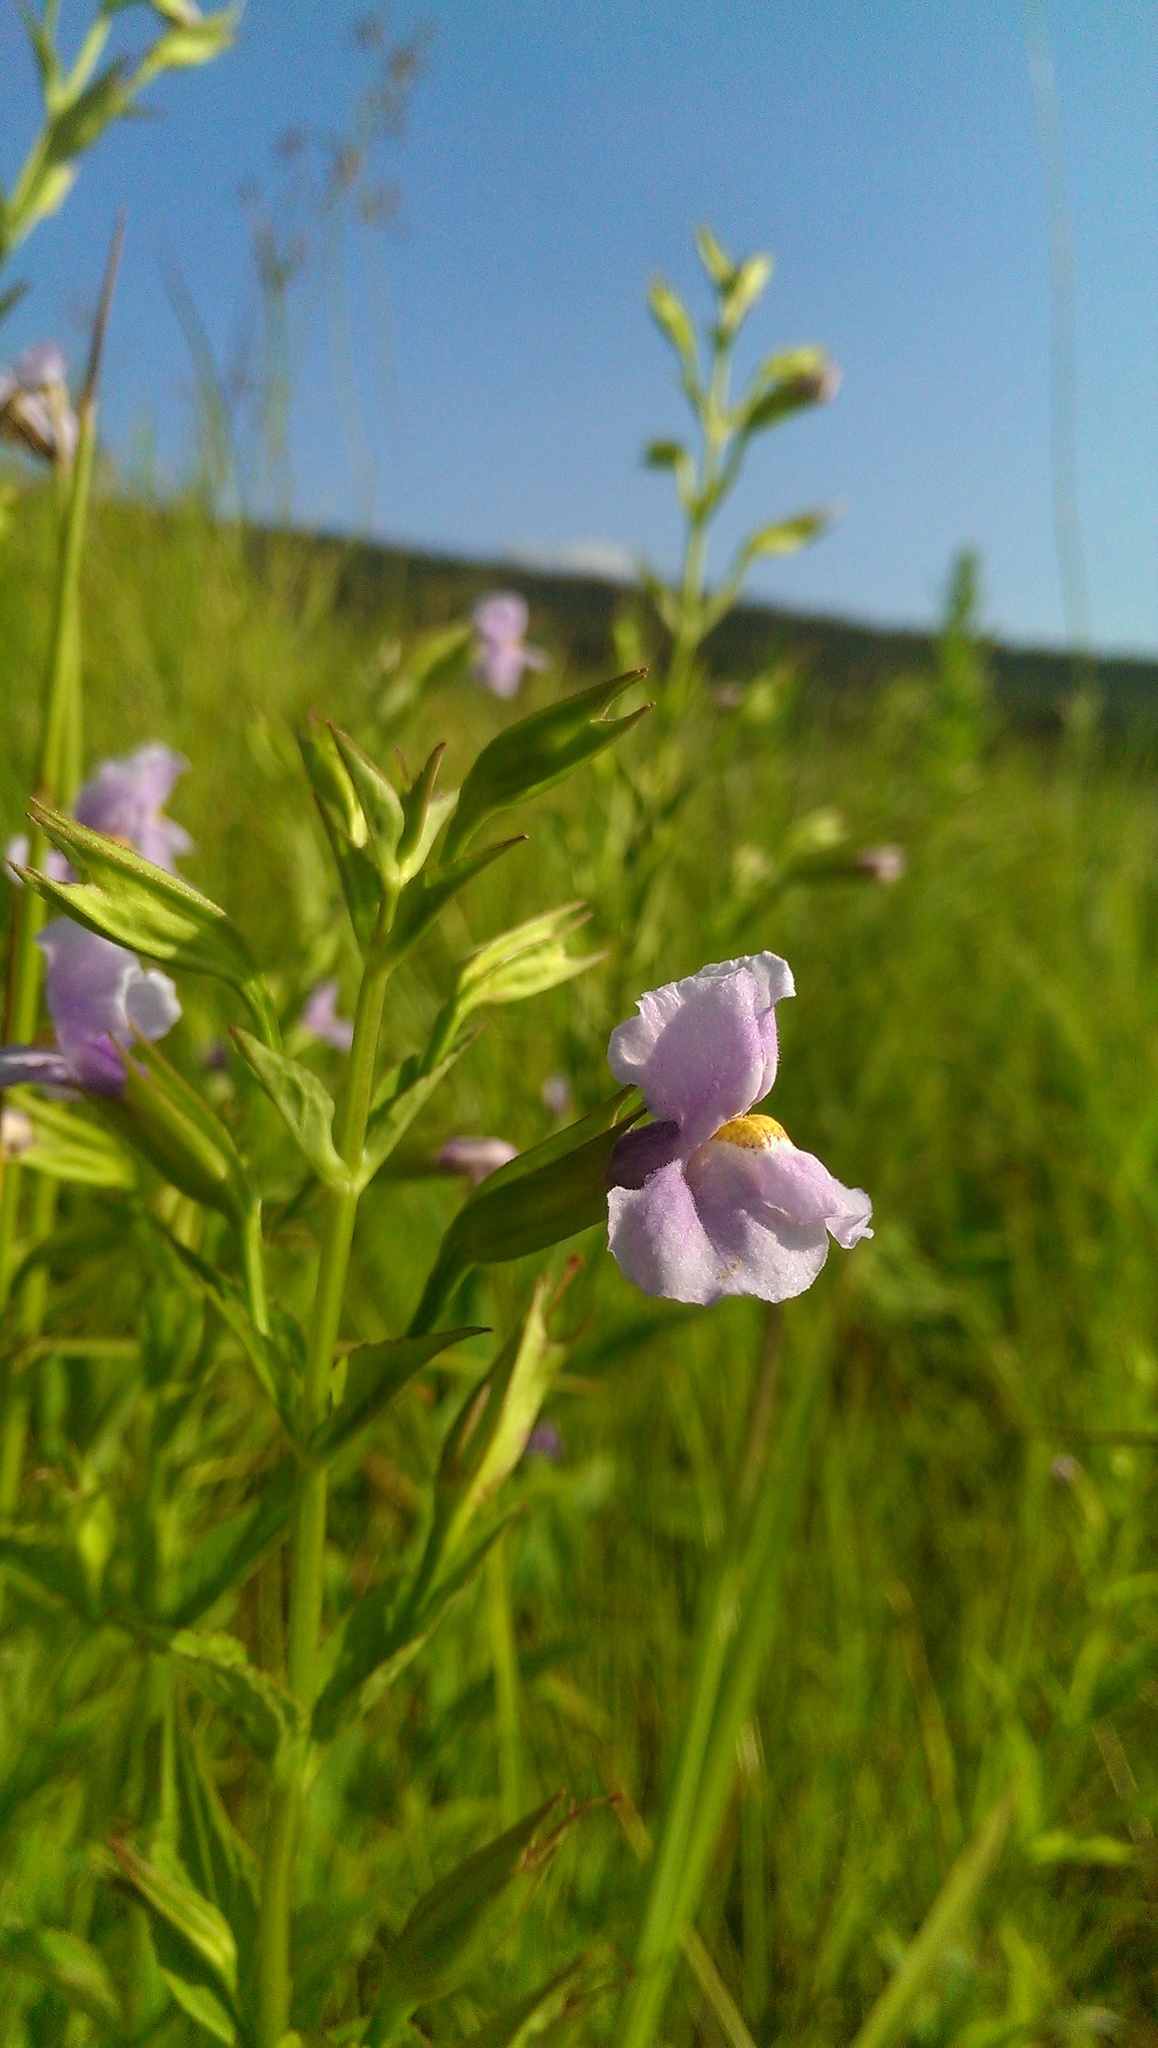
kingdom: Plantae
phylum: Tracheophyta
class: Magnoliopsida
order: Lamiales
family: Phrymaceae
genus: Mimulus
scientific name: Mimulus ringens
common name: Allegheny monkeyflower
